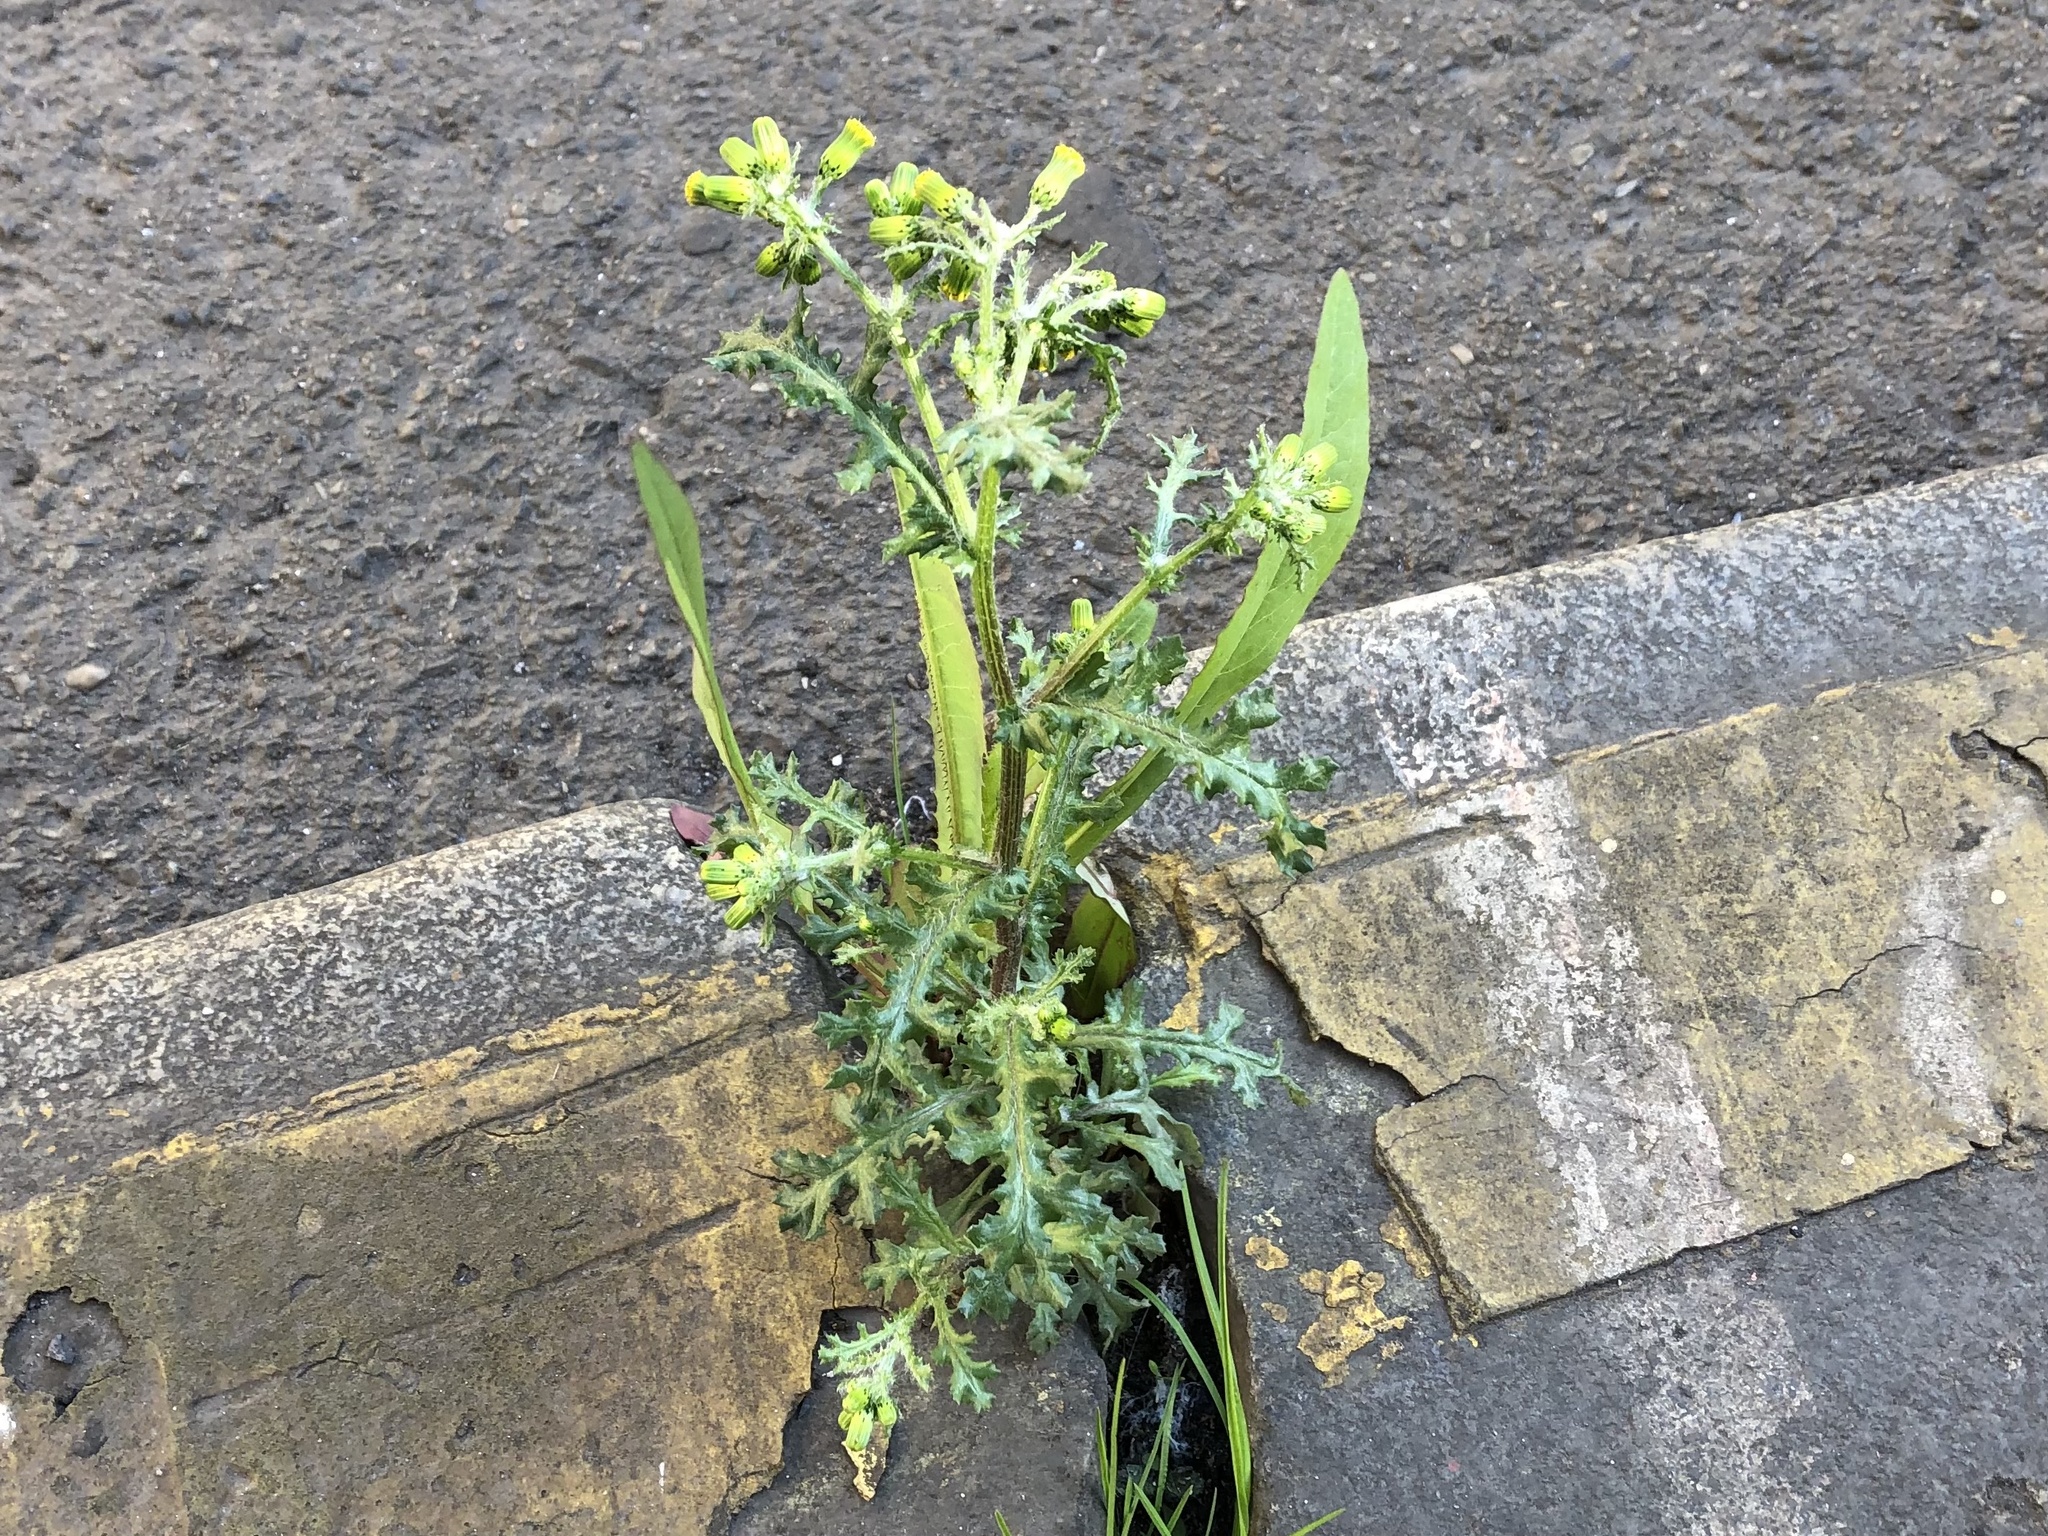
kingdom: Plantae
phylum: Tracheophyta
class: Magnoliopsida
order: Asterales
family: Asteraceae
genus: Senecio
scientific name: Senecio vulgaris
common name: Old-man-in-the-spring
